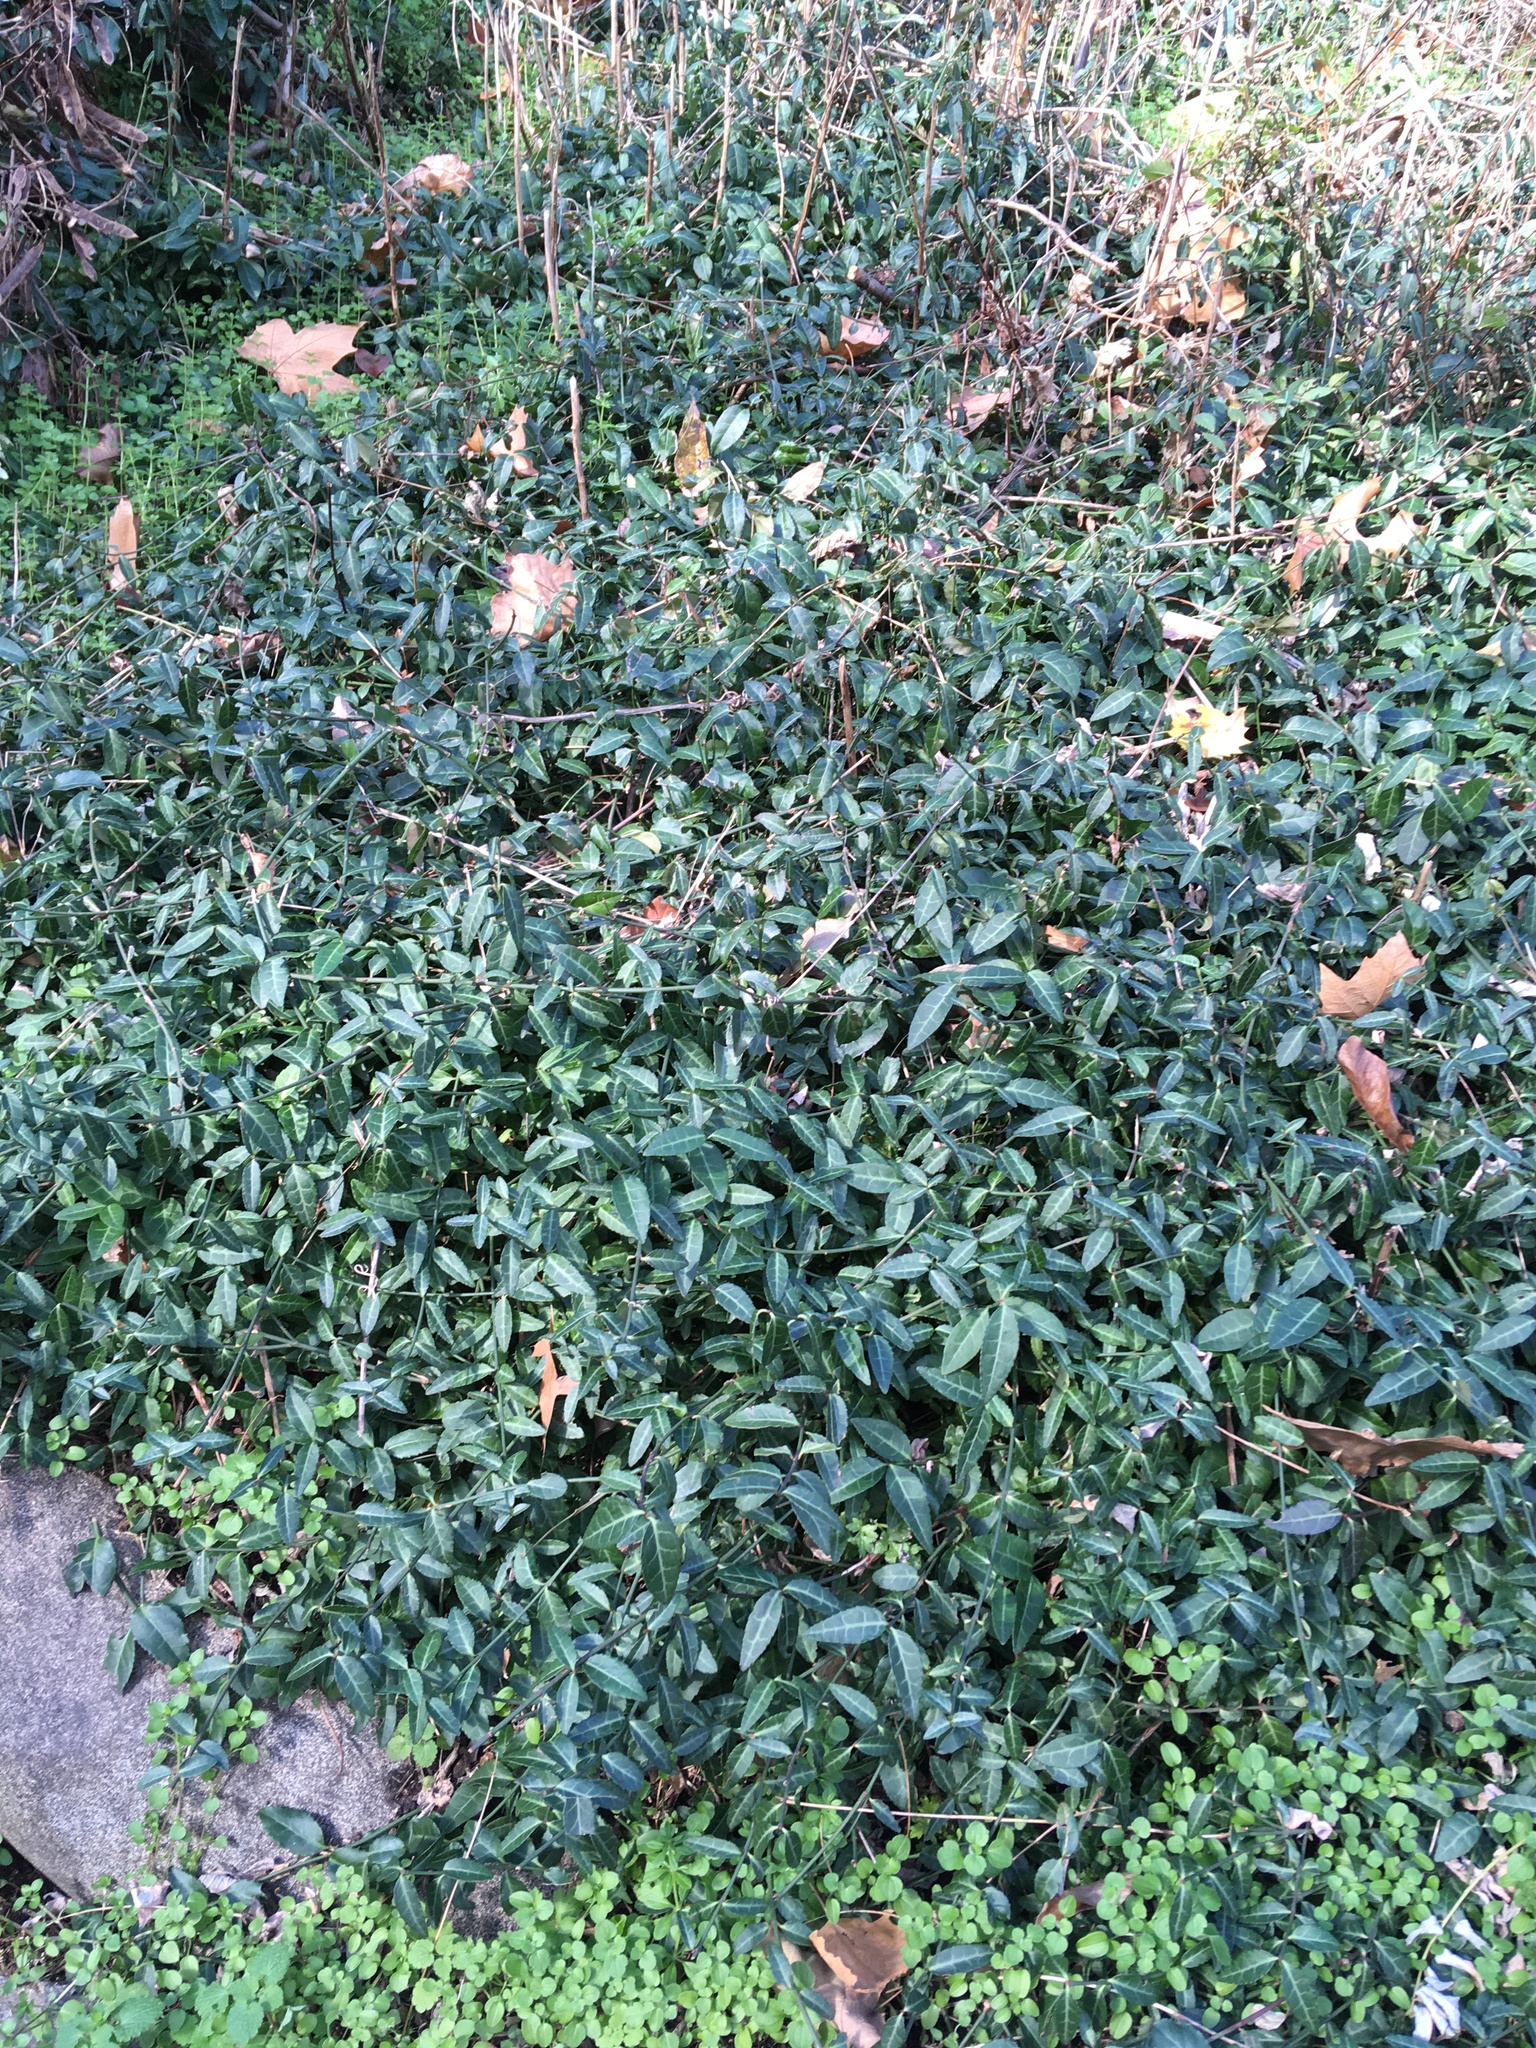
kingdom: Plantae
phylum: Tracheophyta
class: Magnoliopsida
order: Celastrales
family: Celastraceae
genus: Euonymus
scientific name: Euonymus fortunei
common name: Climbing euonymus
